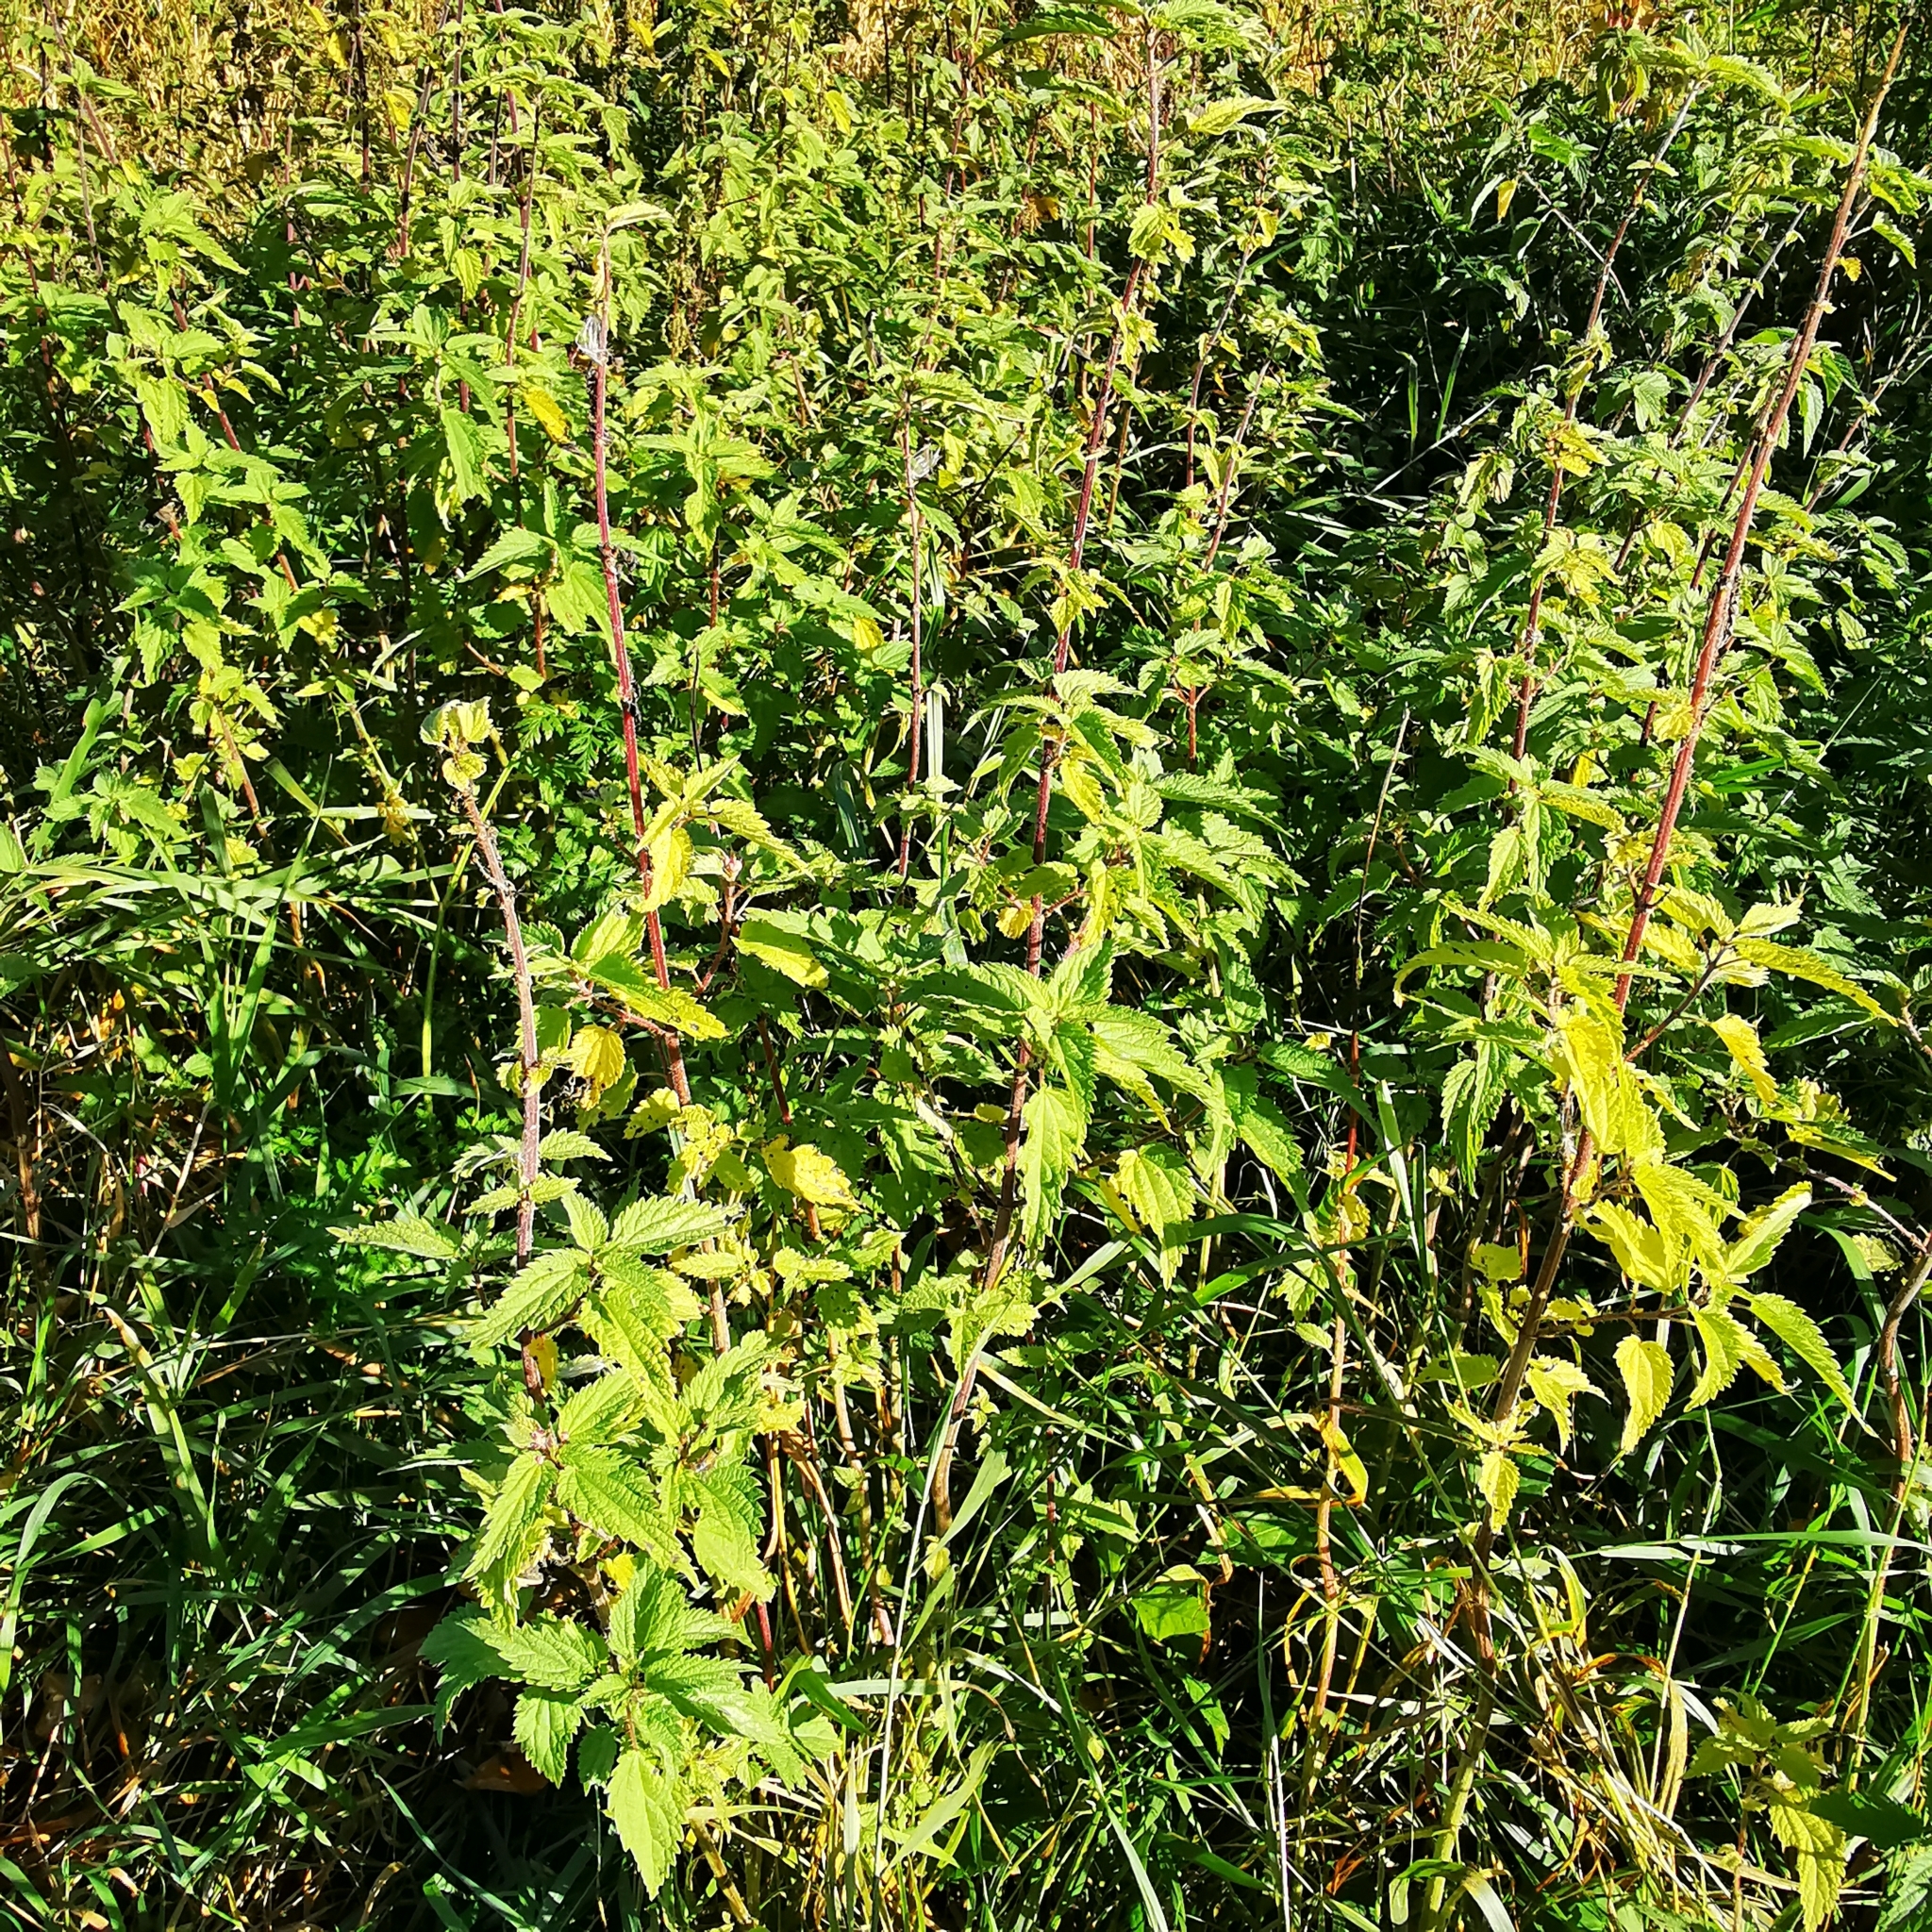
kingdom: Plantae
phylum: Tracheophyta
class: Magnoliopsida
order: Rosales
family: Urticaceae
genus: Urtica
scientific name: Urtica dioica
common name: Common nettle
